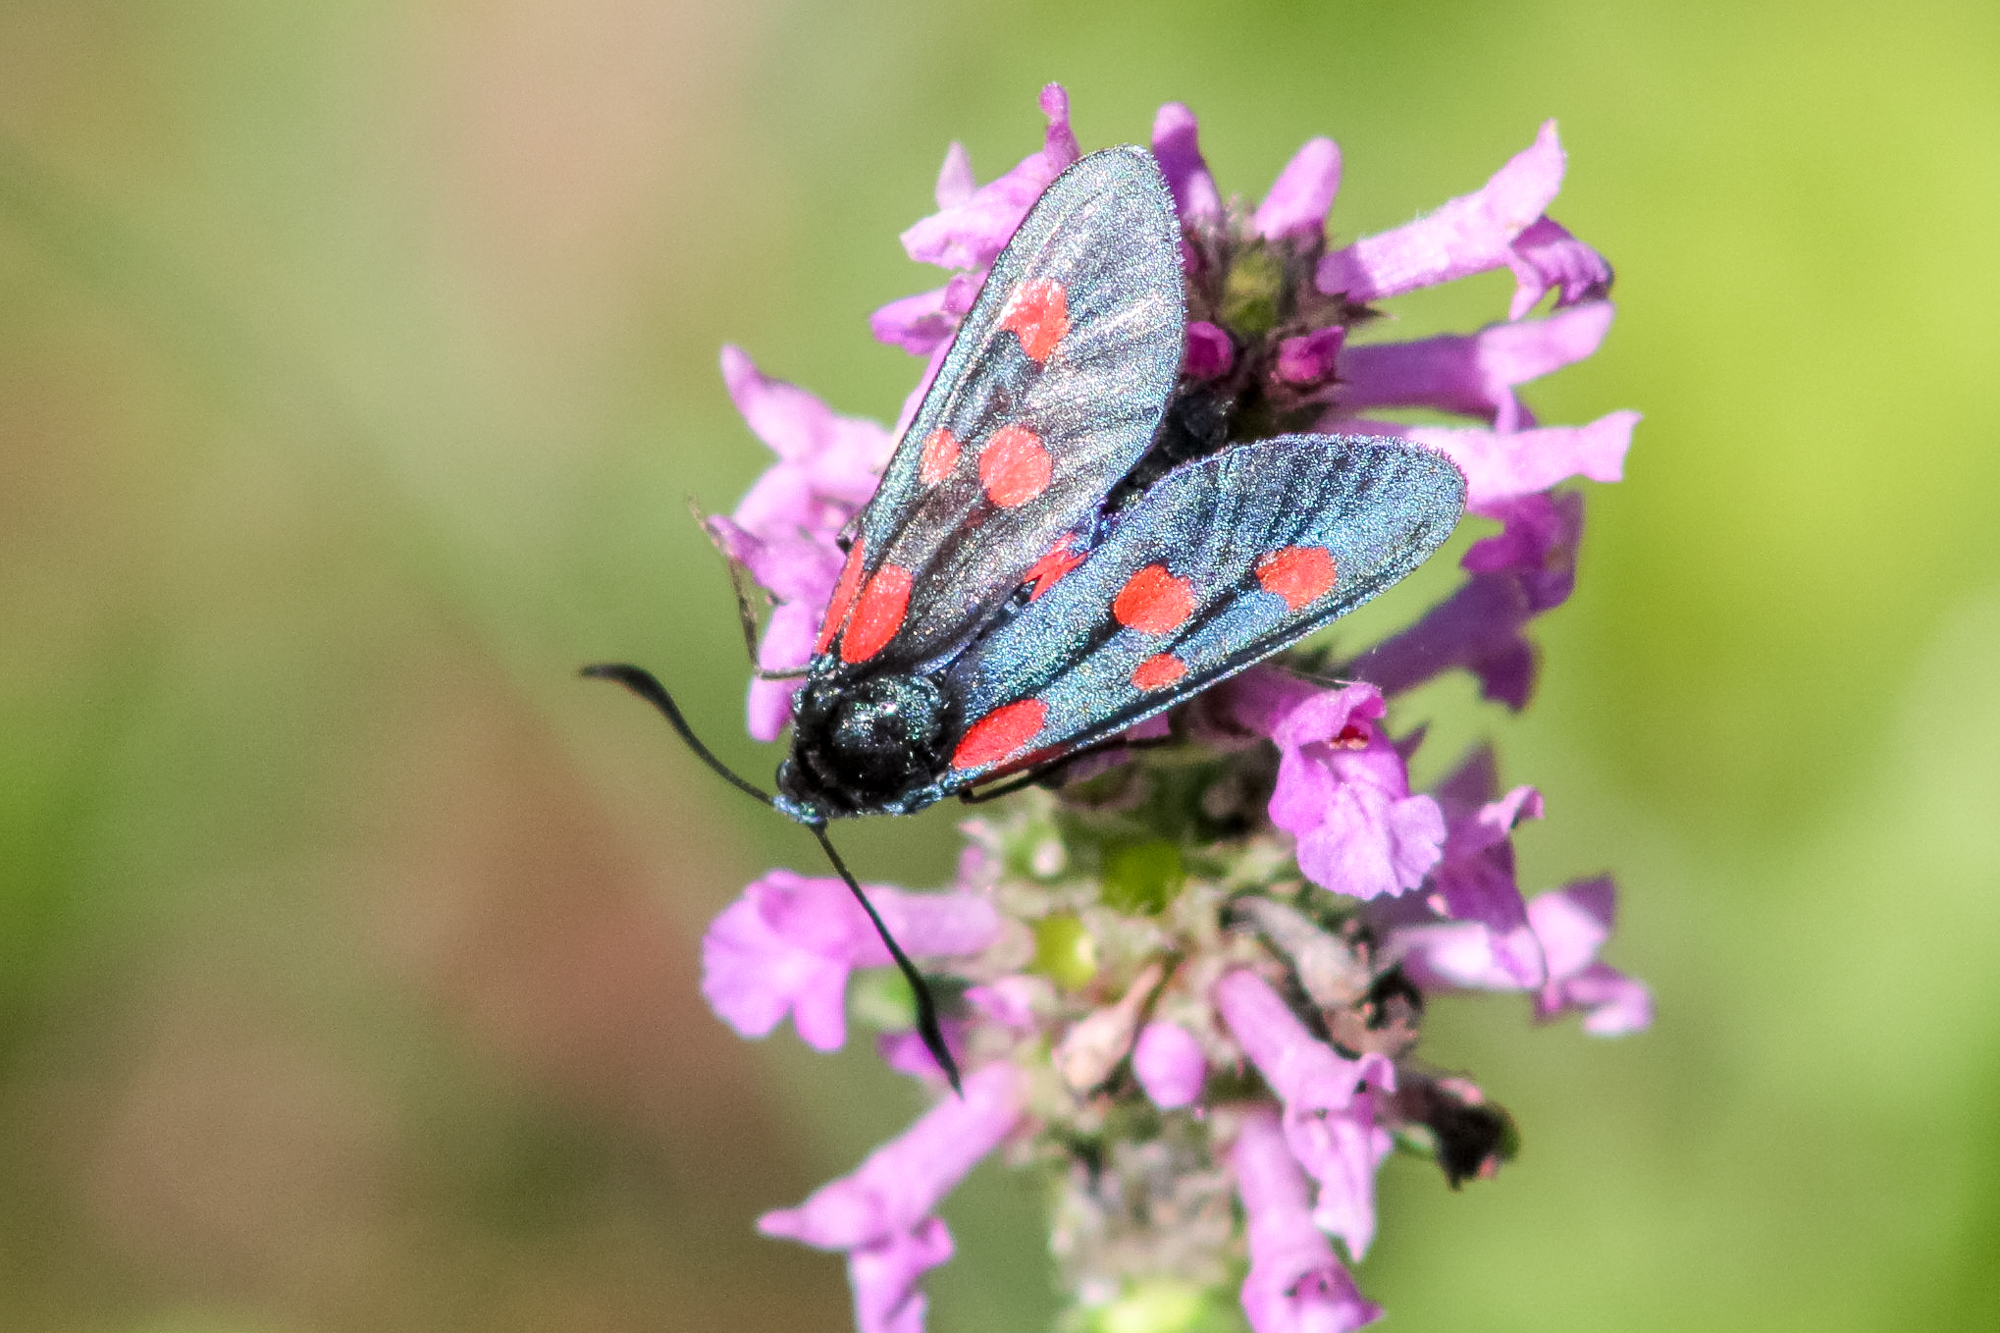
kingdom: Animalia
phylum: Arthropoda
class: Insecta
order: Lepidoptera
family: Zygaenidae
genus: Zygaena
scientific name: Zygaena lonicerae
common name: Narrow-bordered five-spot burnet
